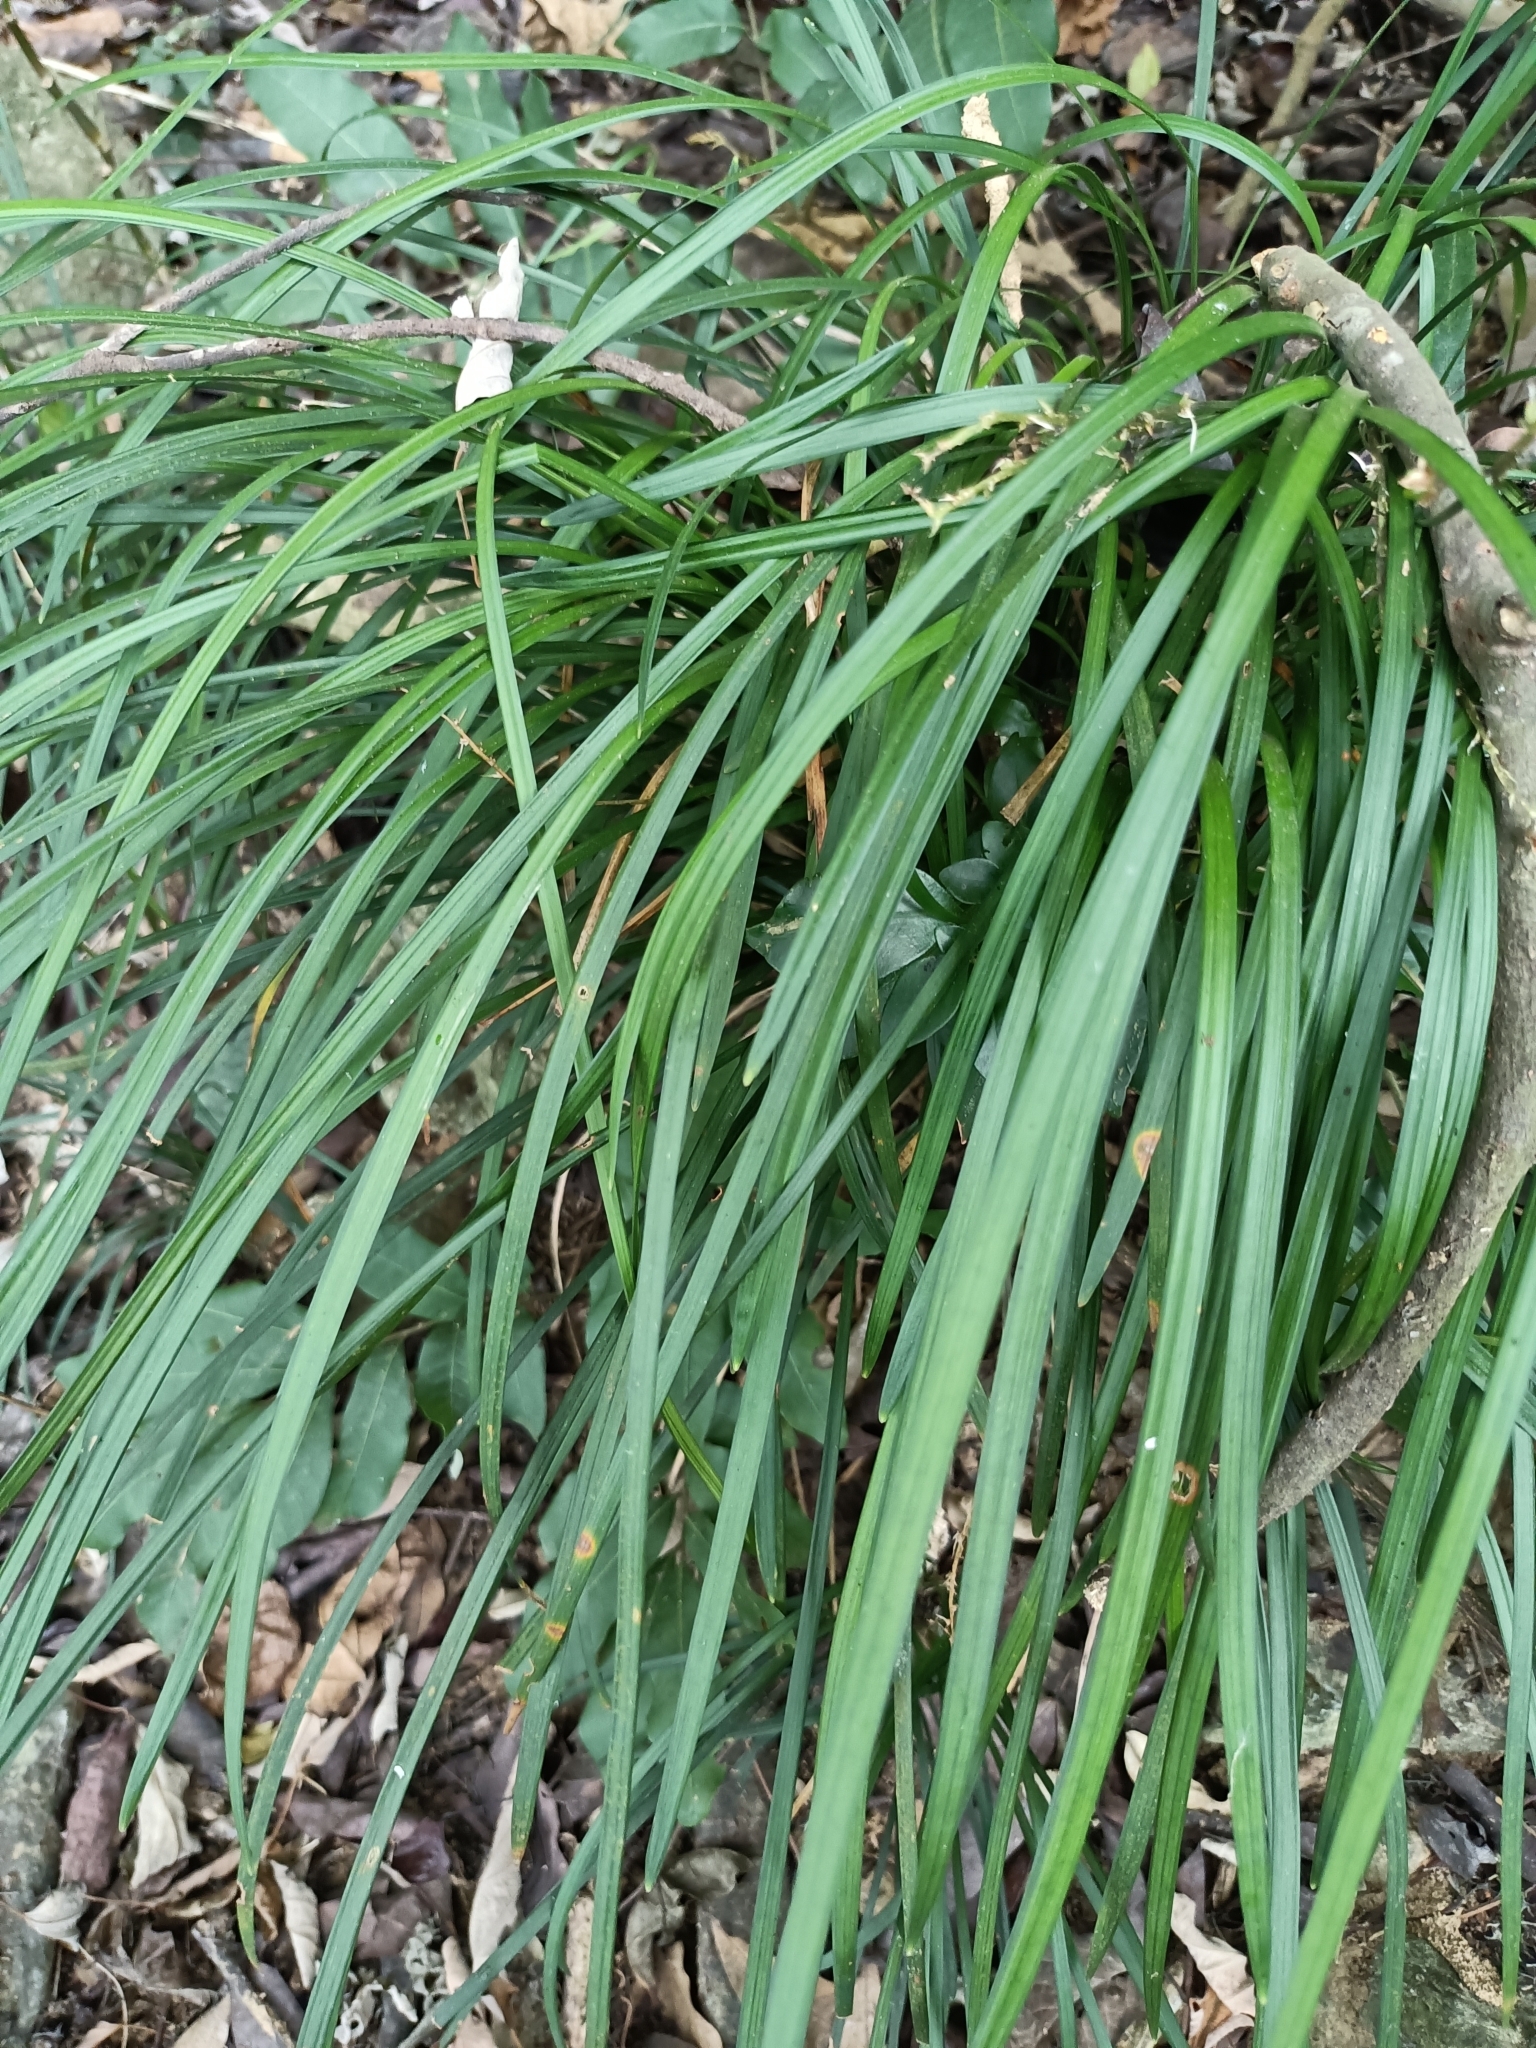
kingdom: Plantae
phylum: Tracheophyta
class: Liliopsida
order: Asparagales
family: Asparagaceae
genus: Ophiopogon
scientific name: Ophiopogon reversus
